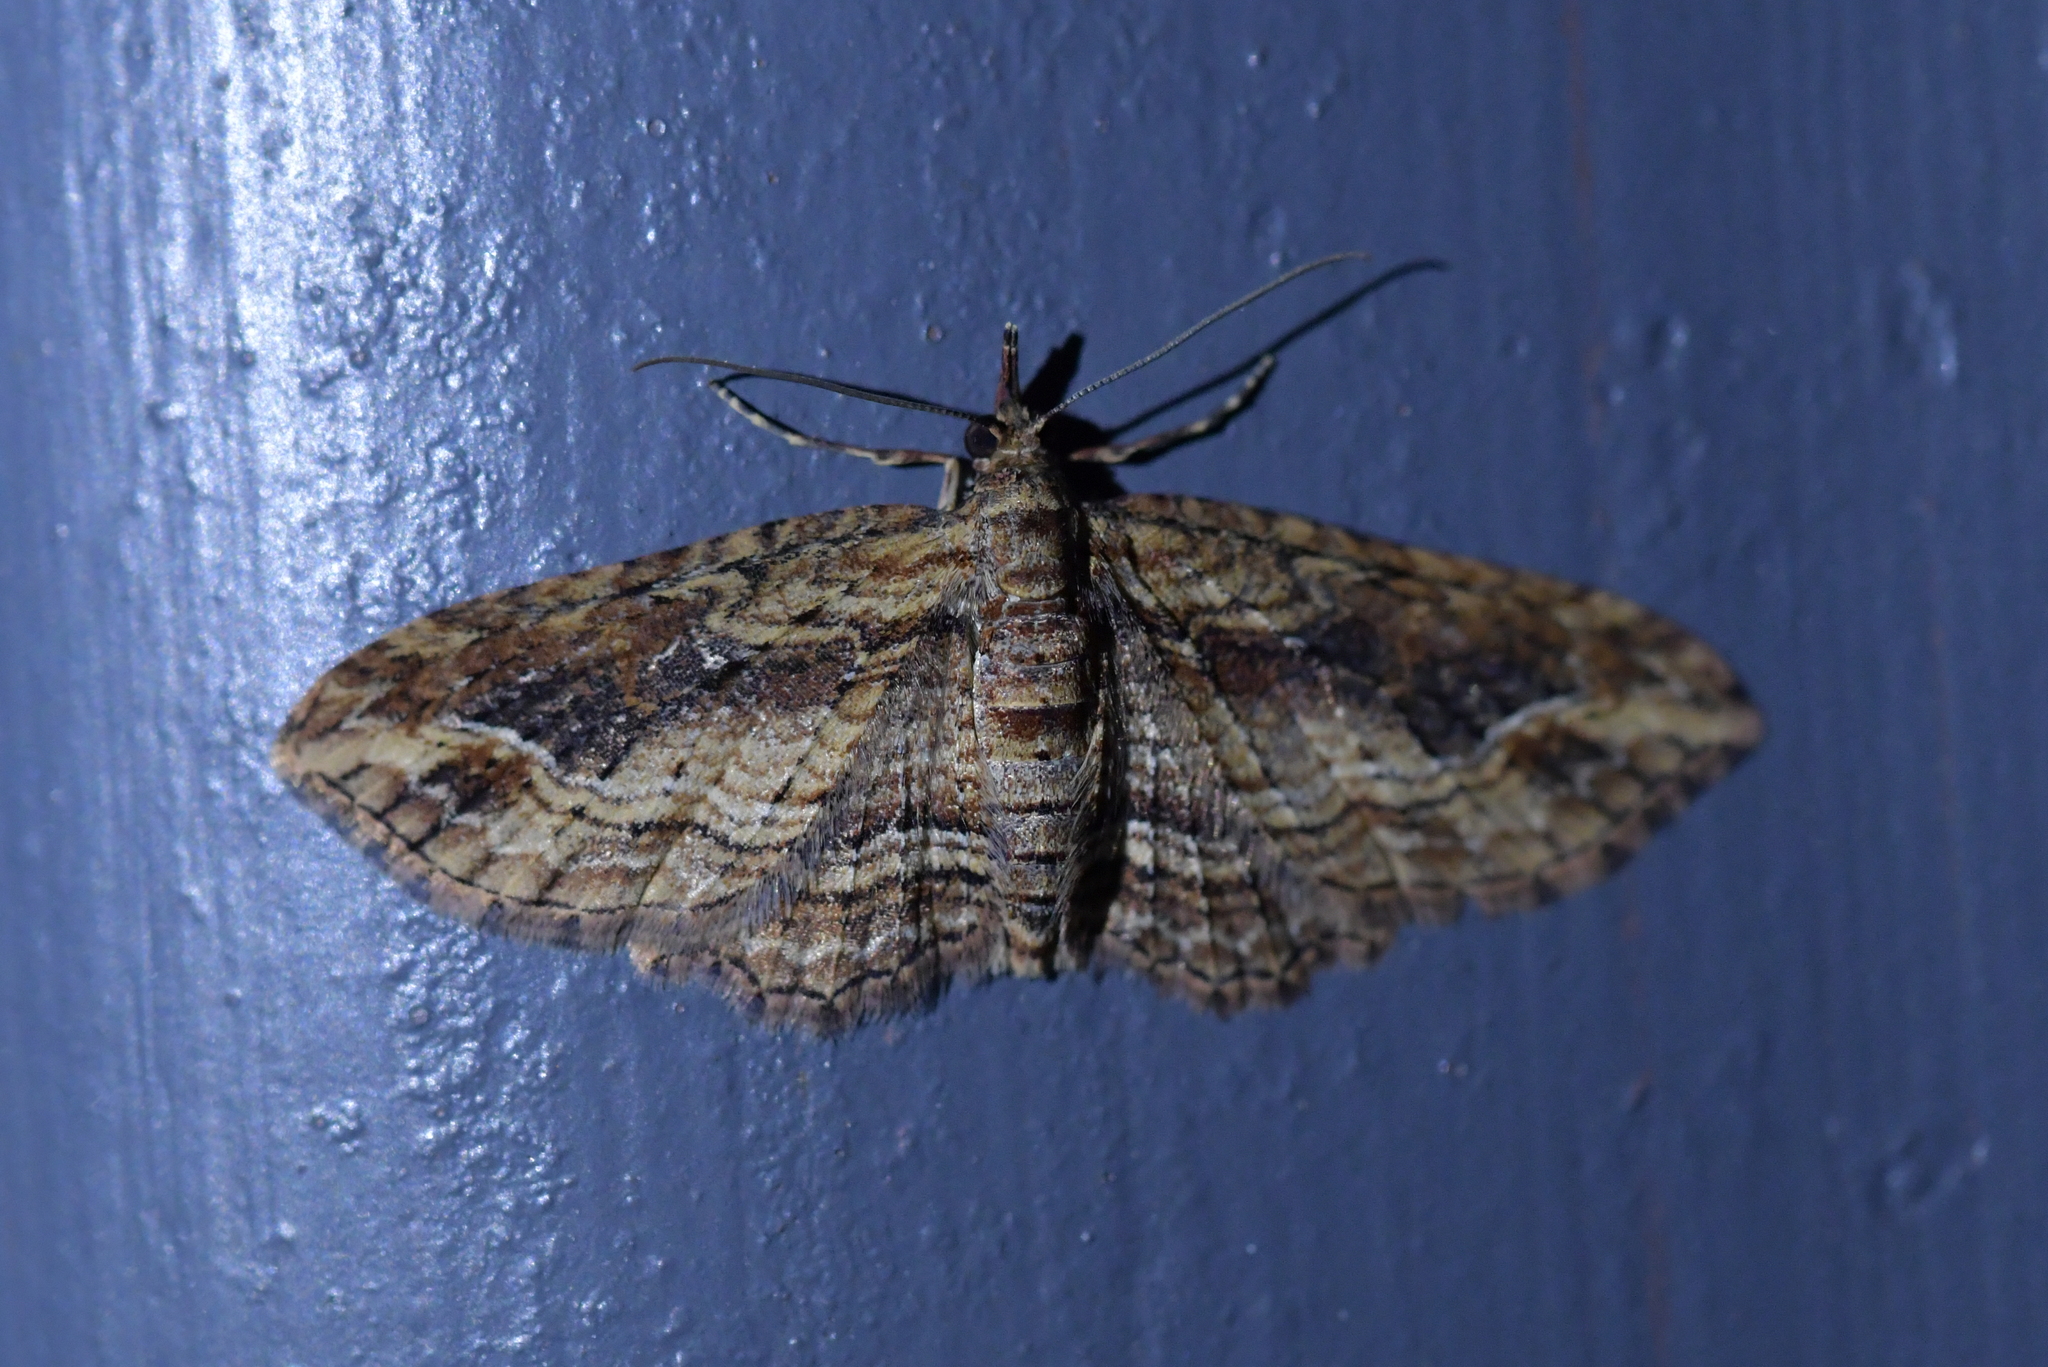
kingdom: Animalia
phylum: Arthropoda
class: Insecta
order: Lepidoptera
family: Geometridae
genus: Chloroclystis
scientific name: Chloroclystis filata
